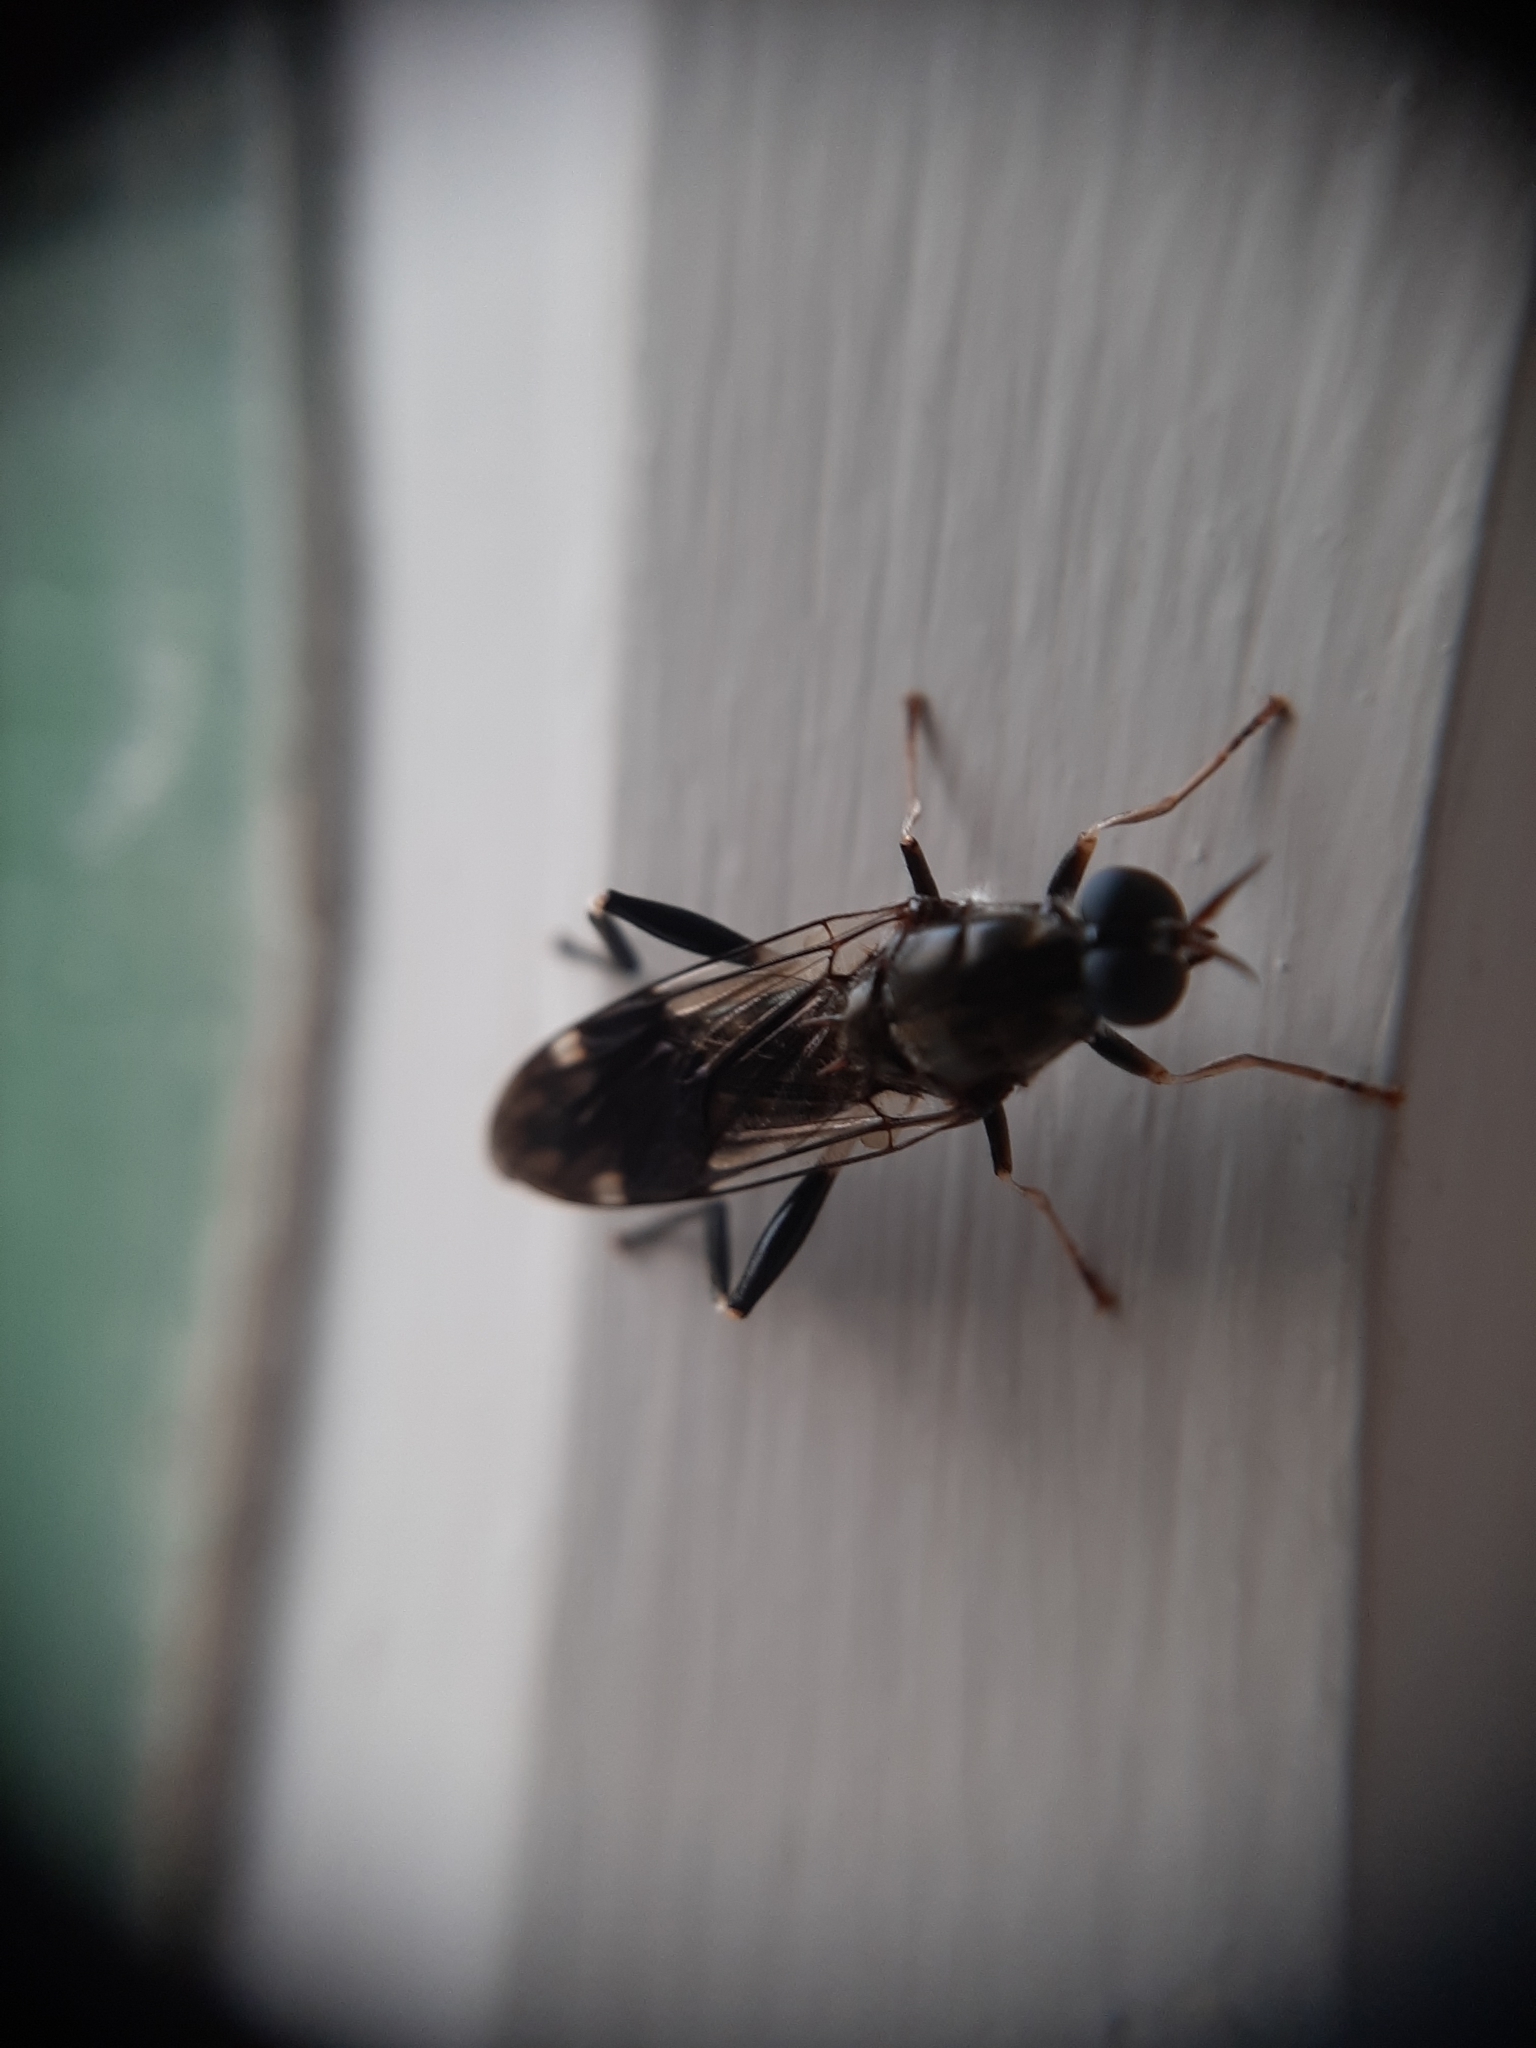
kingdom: Animalia
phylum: Arthropoda
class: Insecta
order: Diptera
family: Stratiomyidae
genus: Exaireta
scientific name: Exaireta spinigera
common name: Blue soldier fly
